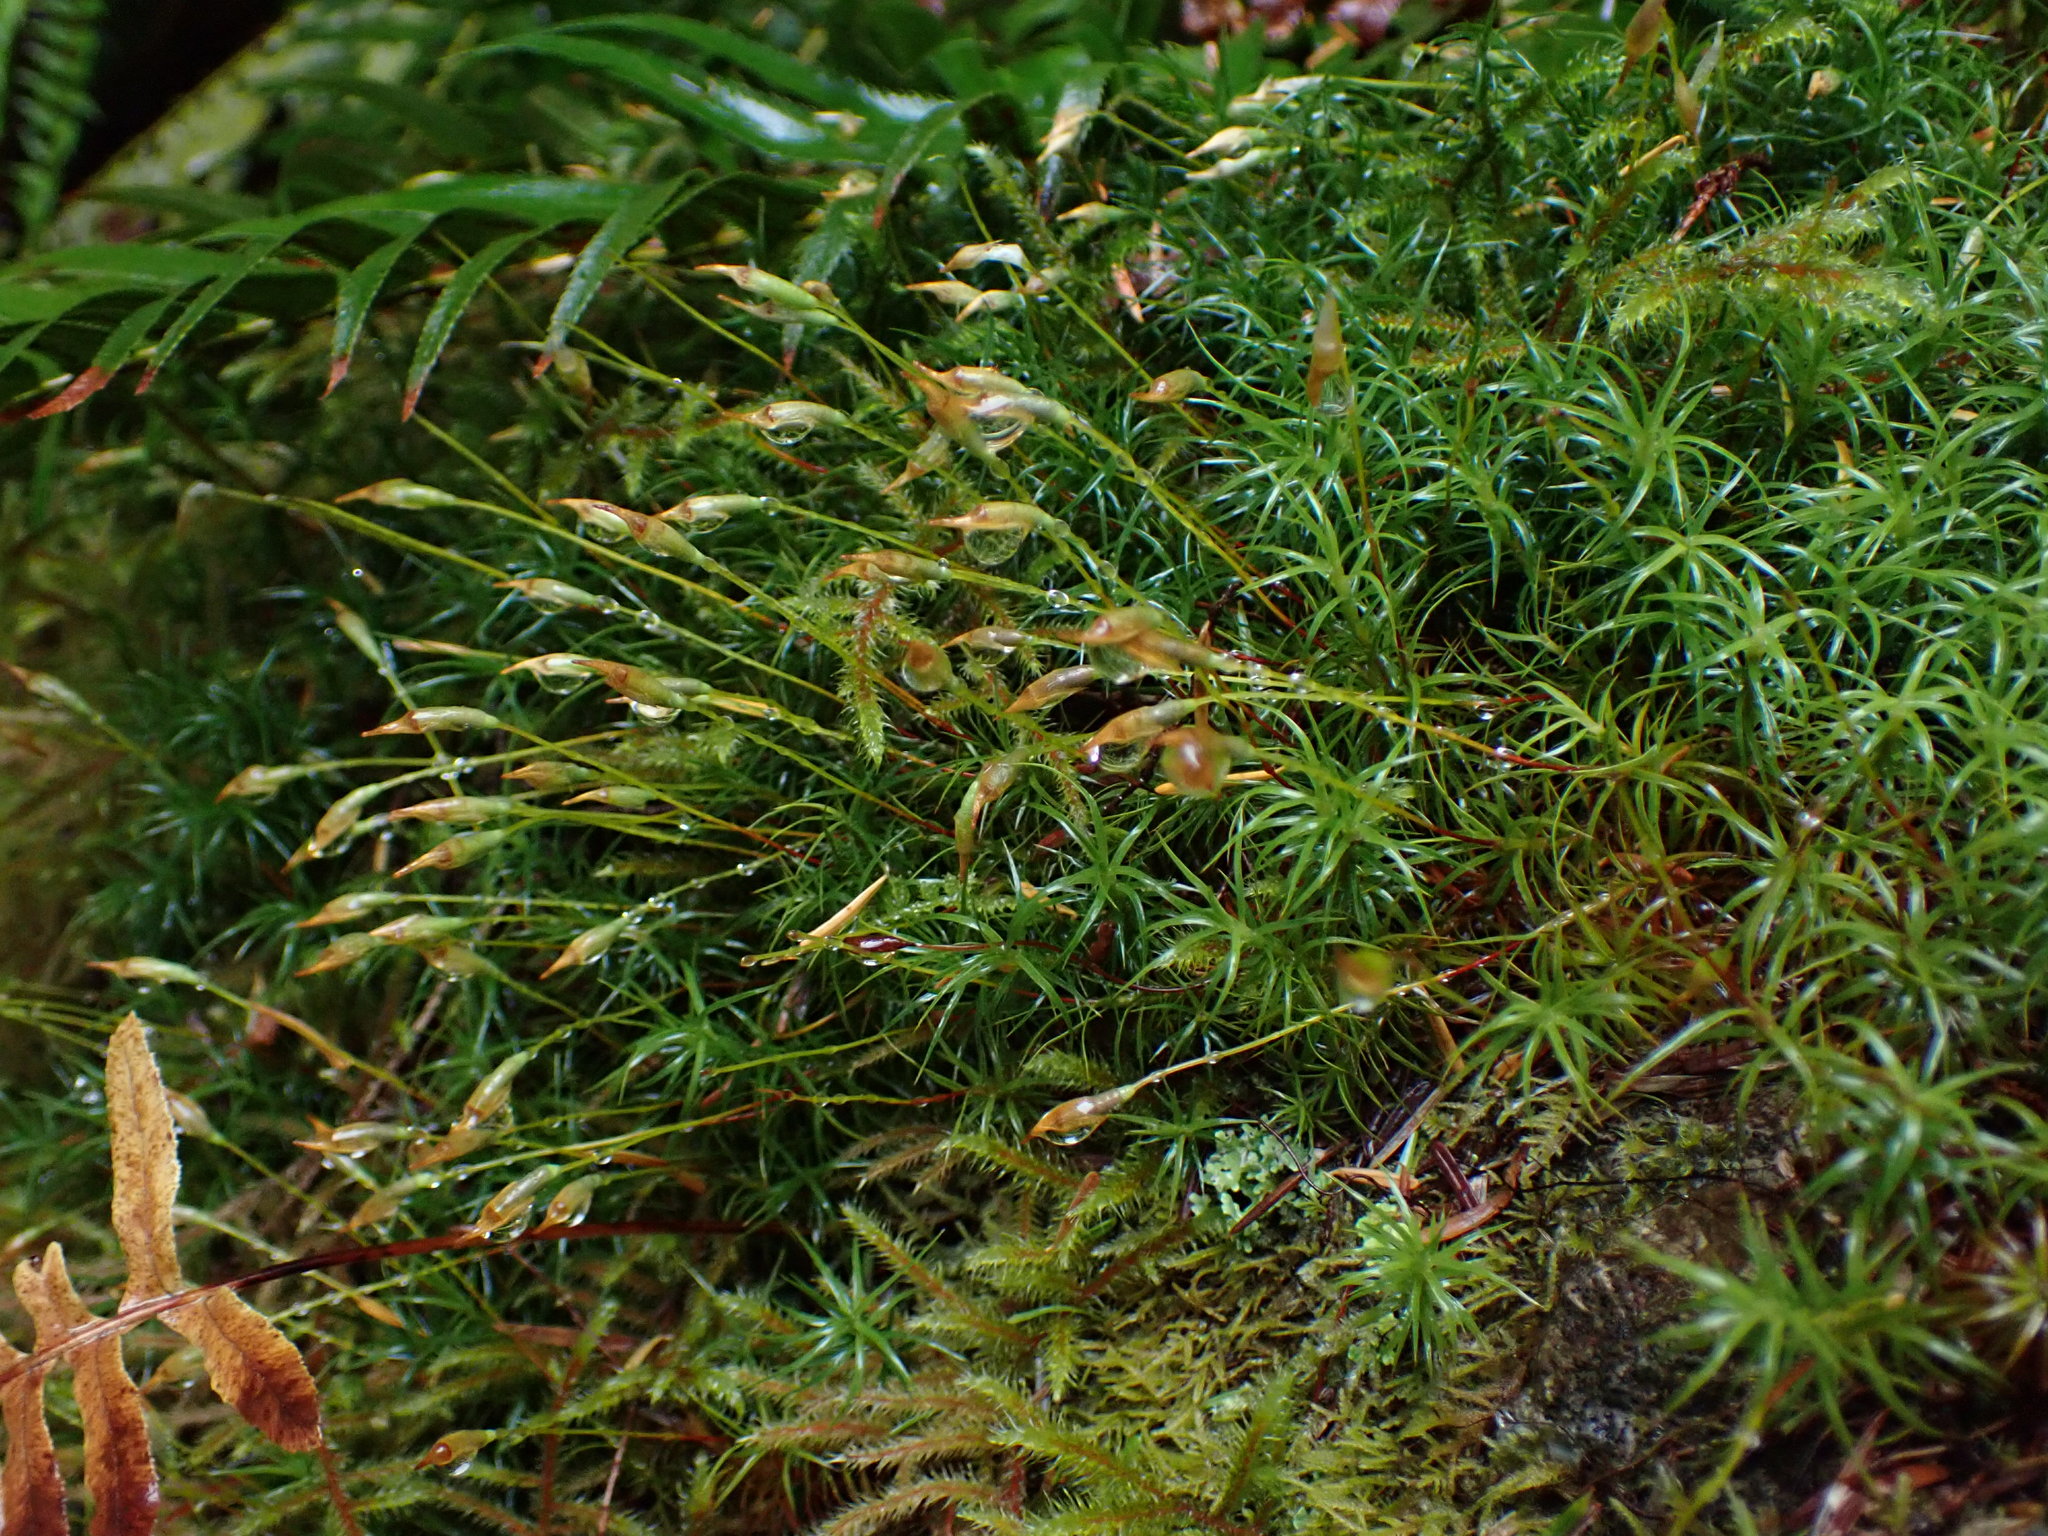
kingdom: Plantae
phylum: Bryophyta
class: Polytrichopsida
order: Polytrichales
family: Polytrichaceae
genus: Polytrichastrum
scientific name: Polytrichastrum alpinum
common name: Alpine haircap
